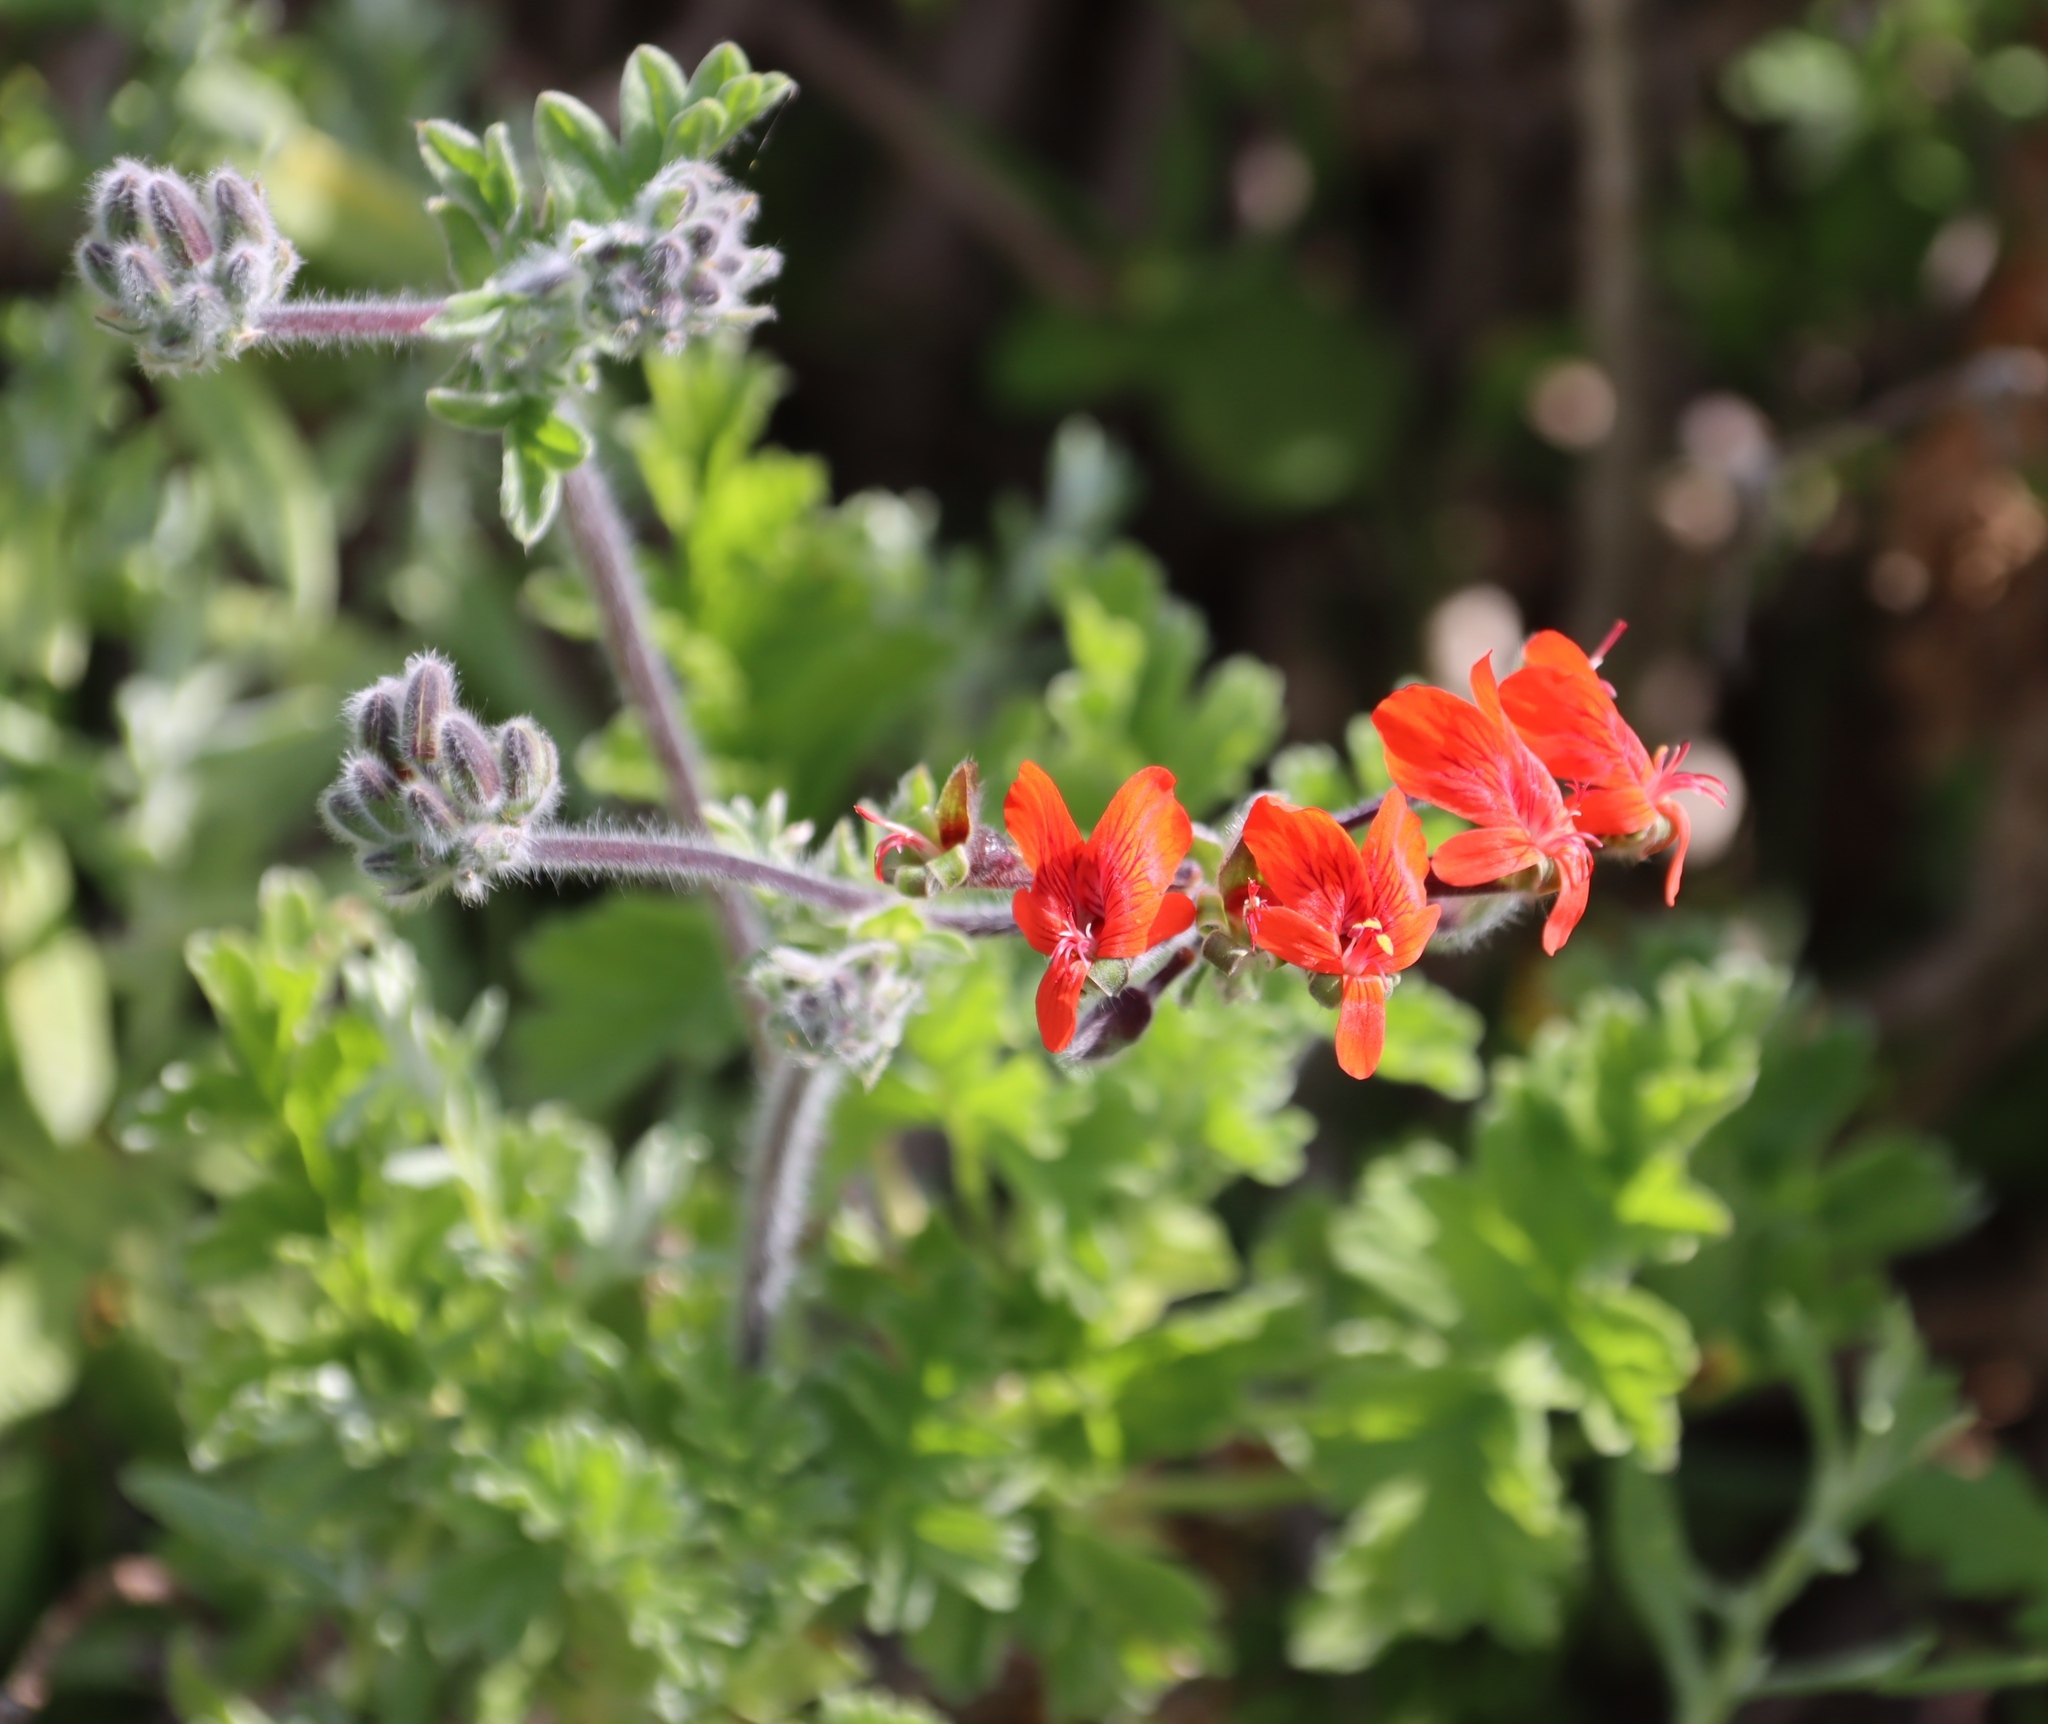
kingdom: Plantae
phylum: Tracheophyta
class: Magnoliopsida
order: Geraniales
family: Geraniaceae
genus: Pelargonium
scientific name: Pelargonium fulgidum
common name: Celandine-leaf pelargonium
